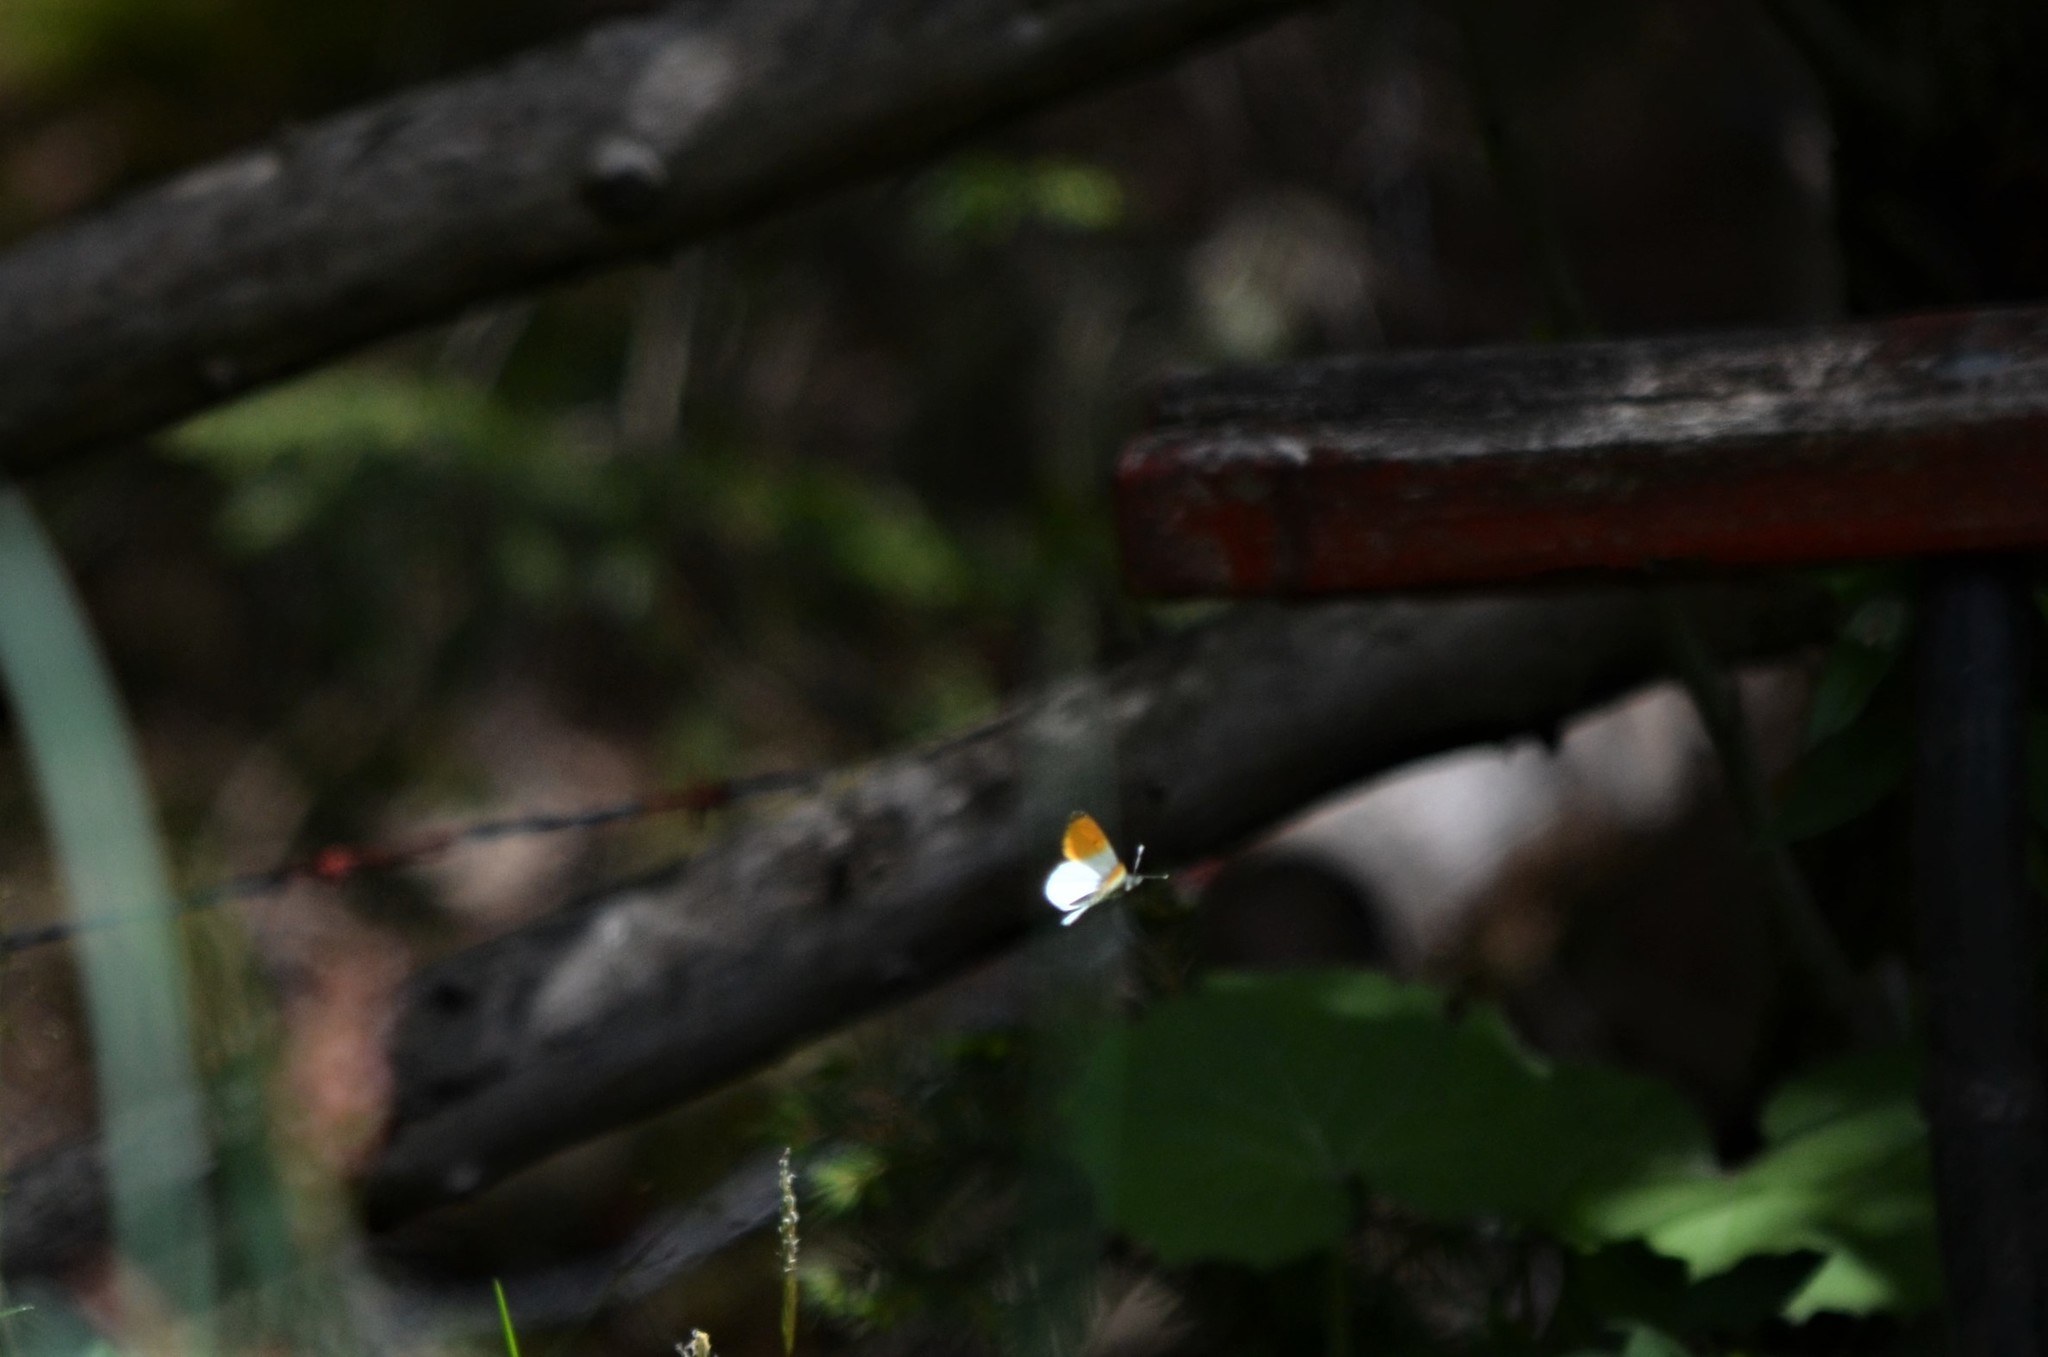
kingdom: Animalia
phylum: Arthropoda
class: Insecta
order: Lepidoptera
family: Pieridae
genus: Anthocharis
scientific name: Anthocharis cardamines
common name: Orange-tip
